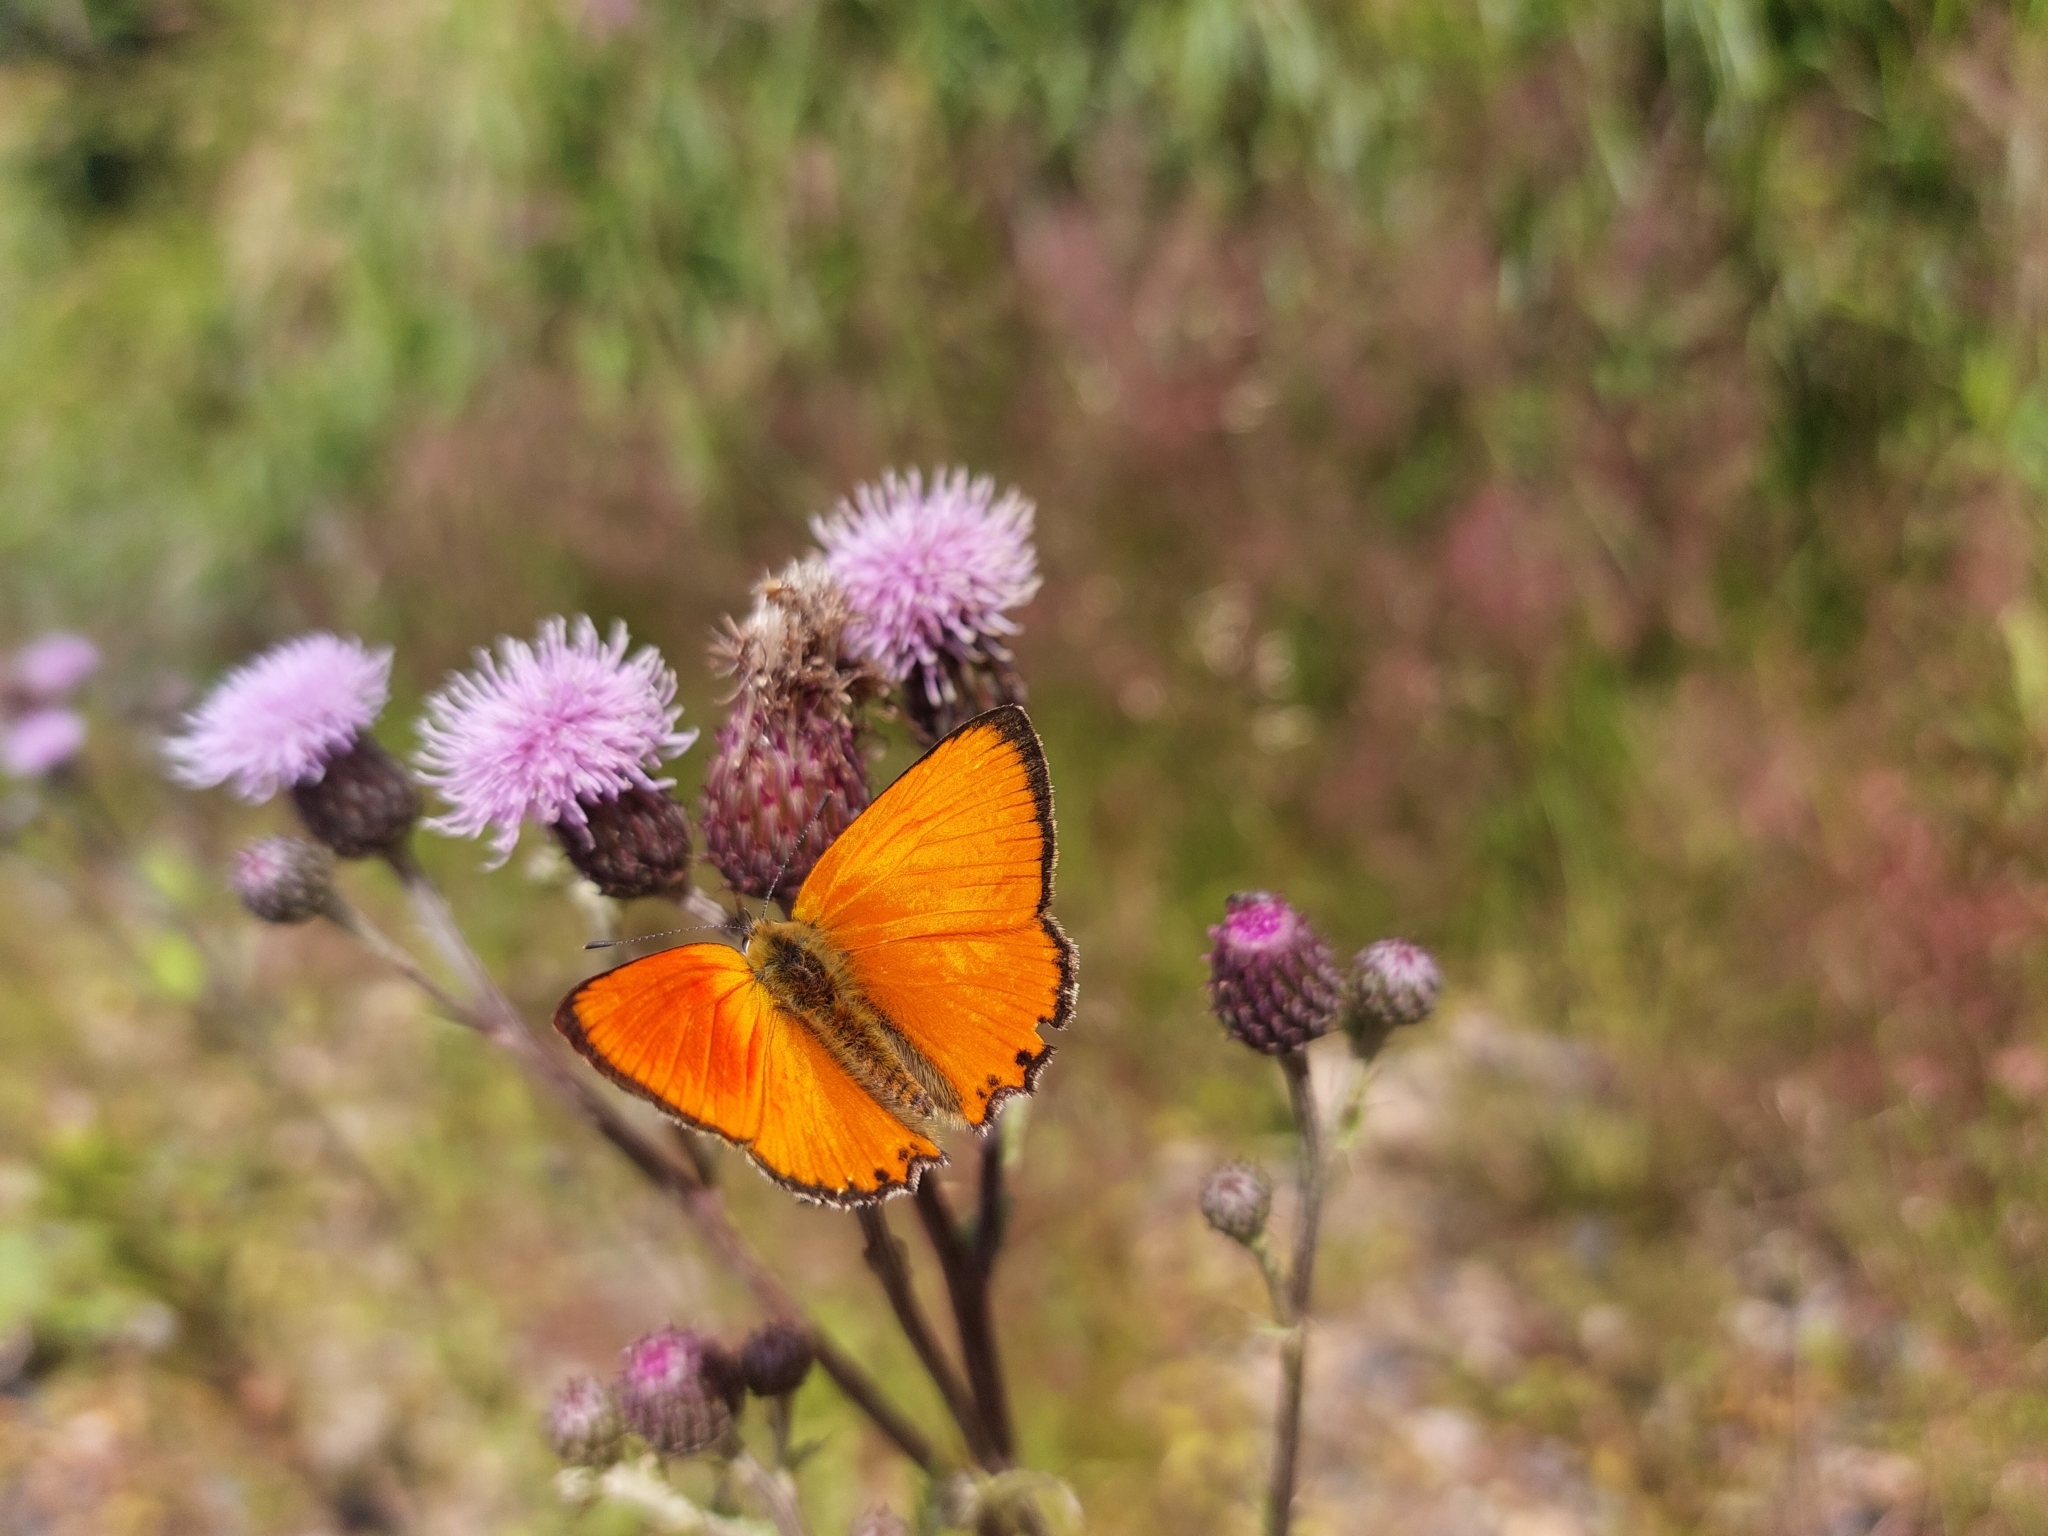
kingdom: Animalia
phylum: Arthropoda
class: Insecta
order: Lepidoptera
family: Lycaenidae
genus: Lycaena
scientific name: Lycaena virgaureae
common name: Scarce copper
